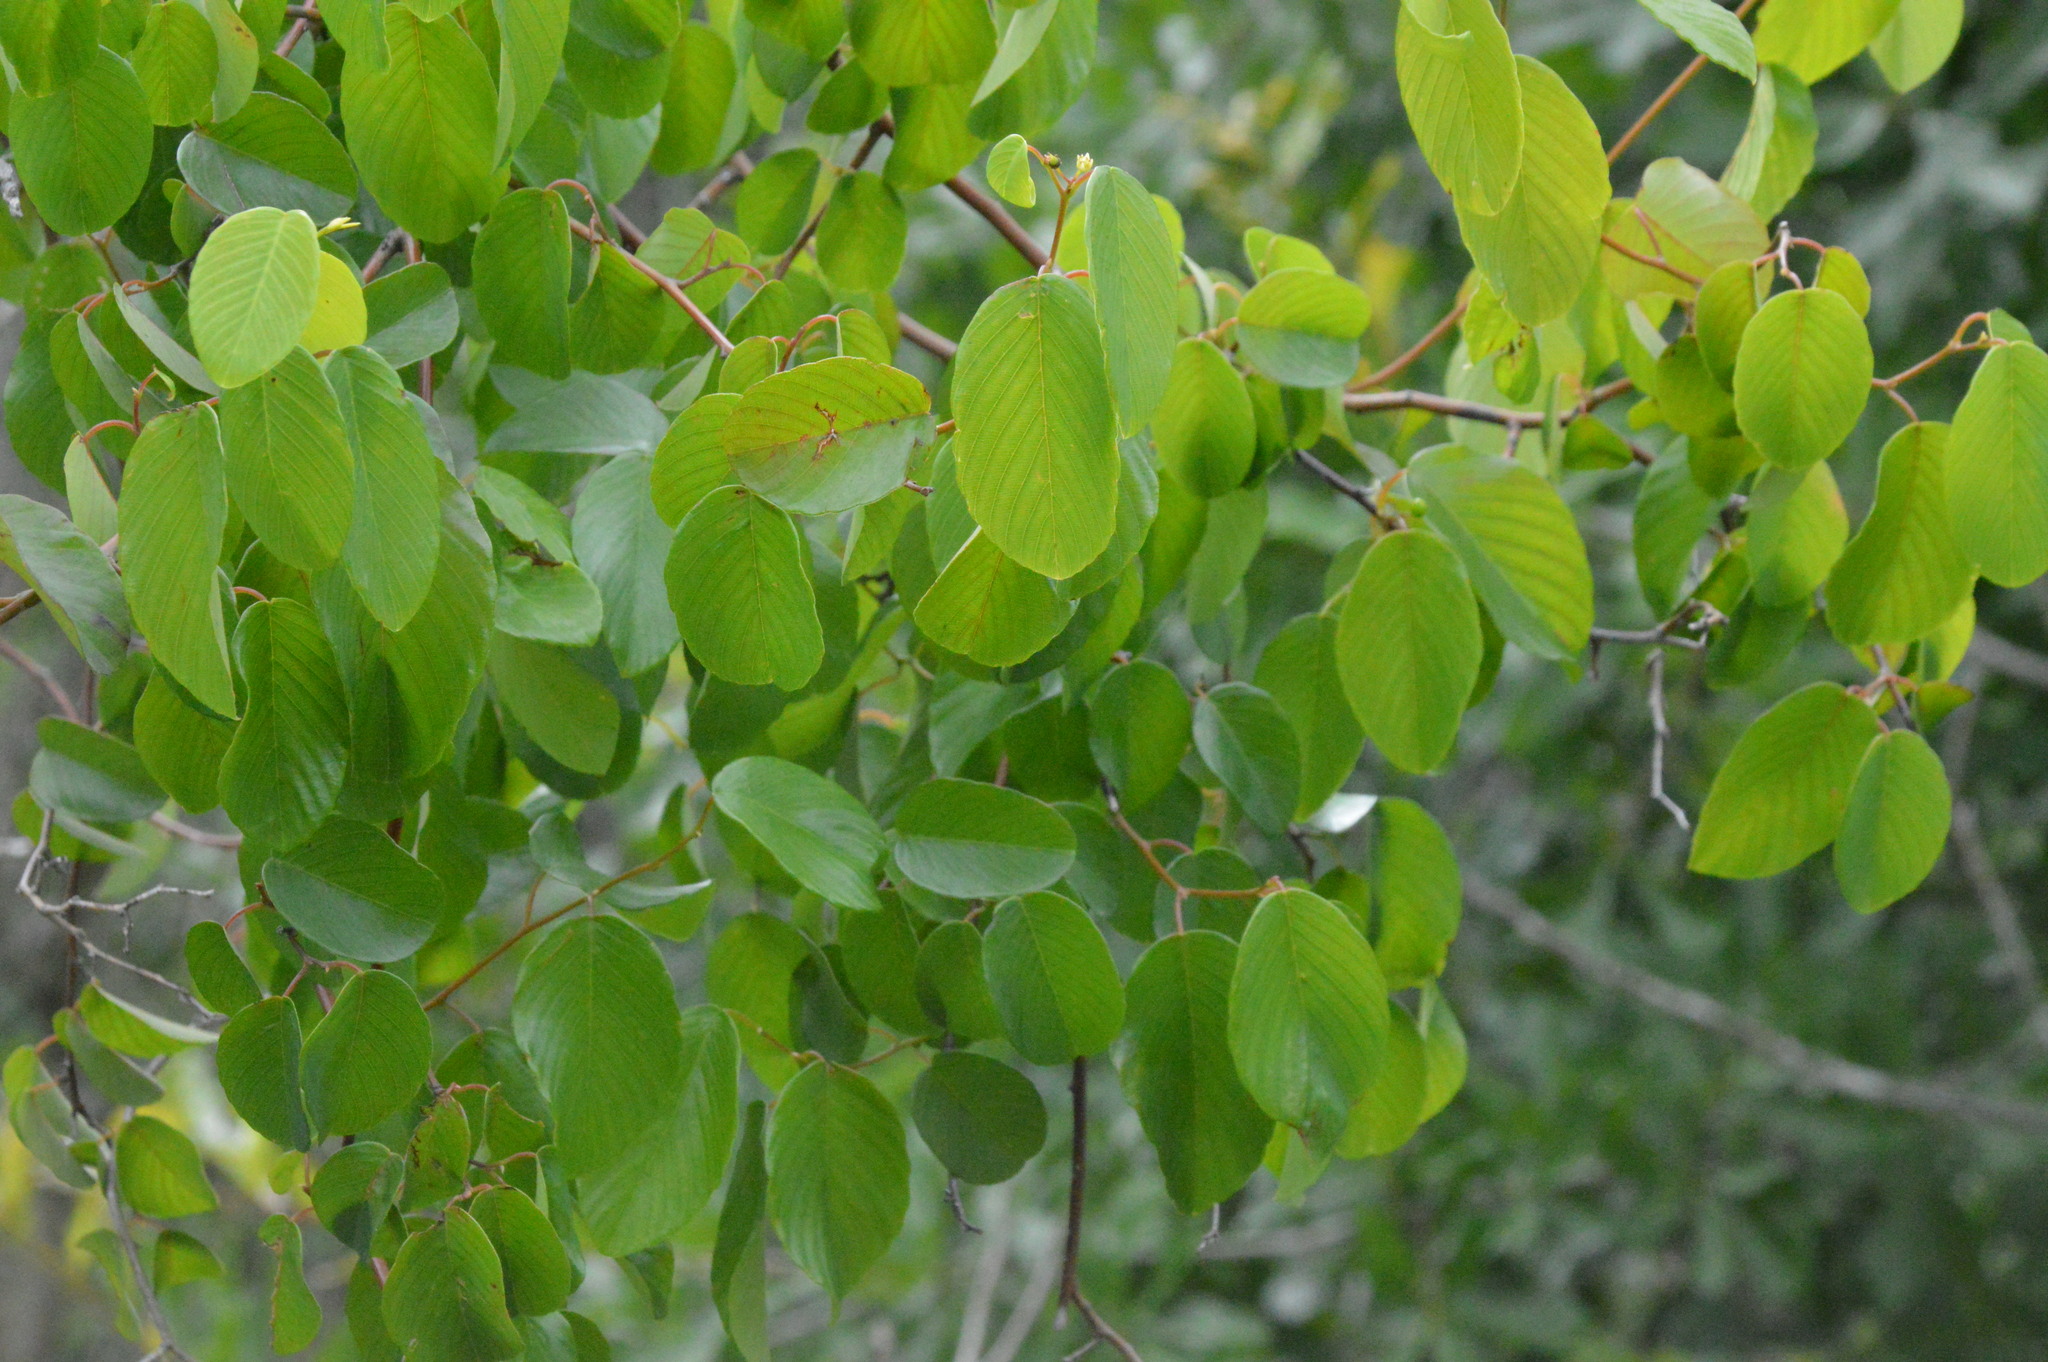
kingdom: Plantae
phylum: Tracheophyta
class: Magnoliopsida
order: Rosales
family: Rhamnaceae
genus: Berchemia
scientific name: Berchemia scandens
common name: Supplejack
